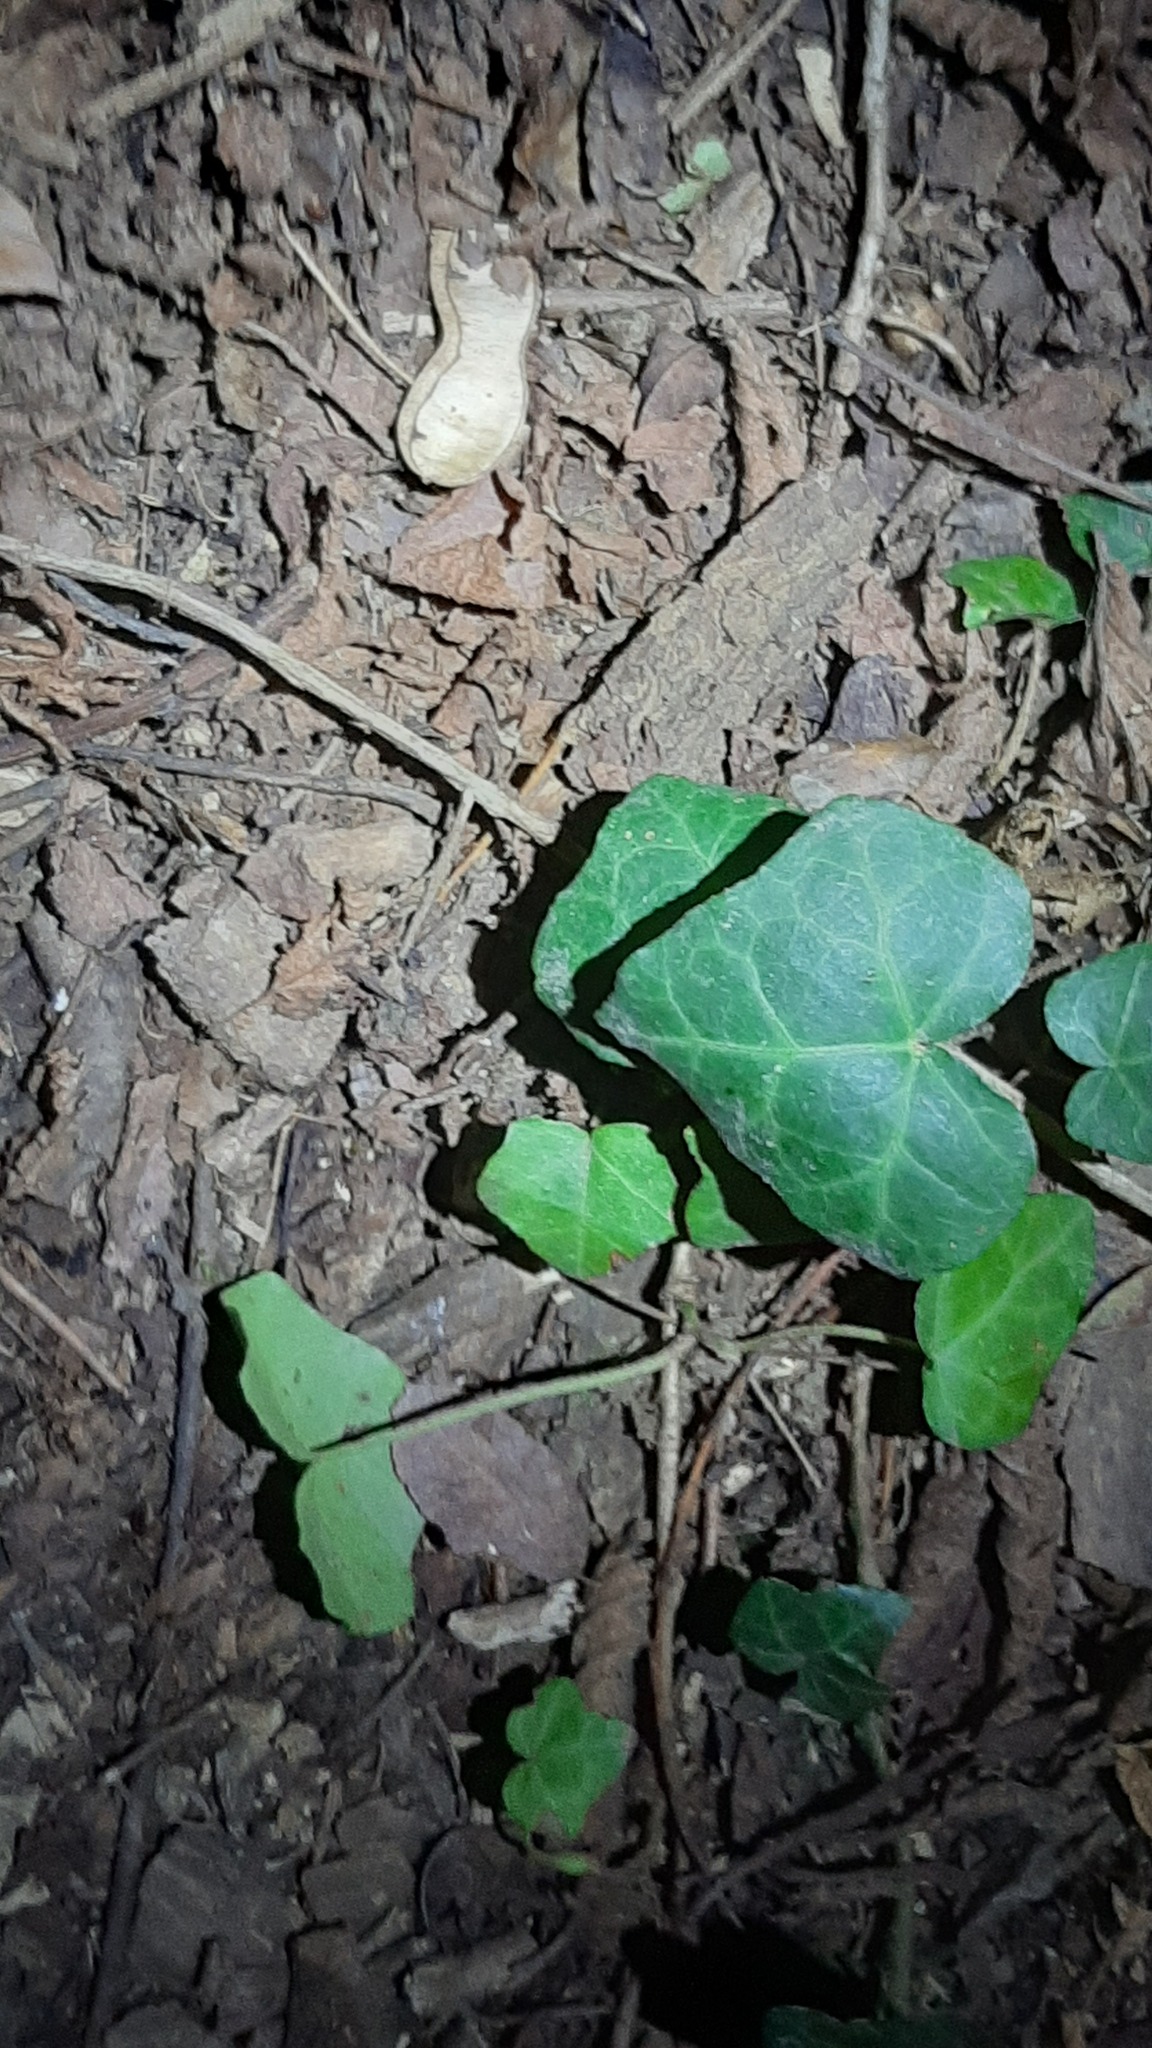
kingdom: Plantae
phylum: Tracheophyta
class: Magnoliopsida
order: Apiales
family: Araliaceae
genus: Hedera
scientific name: Hedera helix
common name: Ivy
